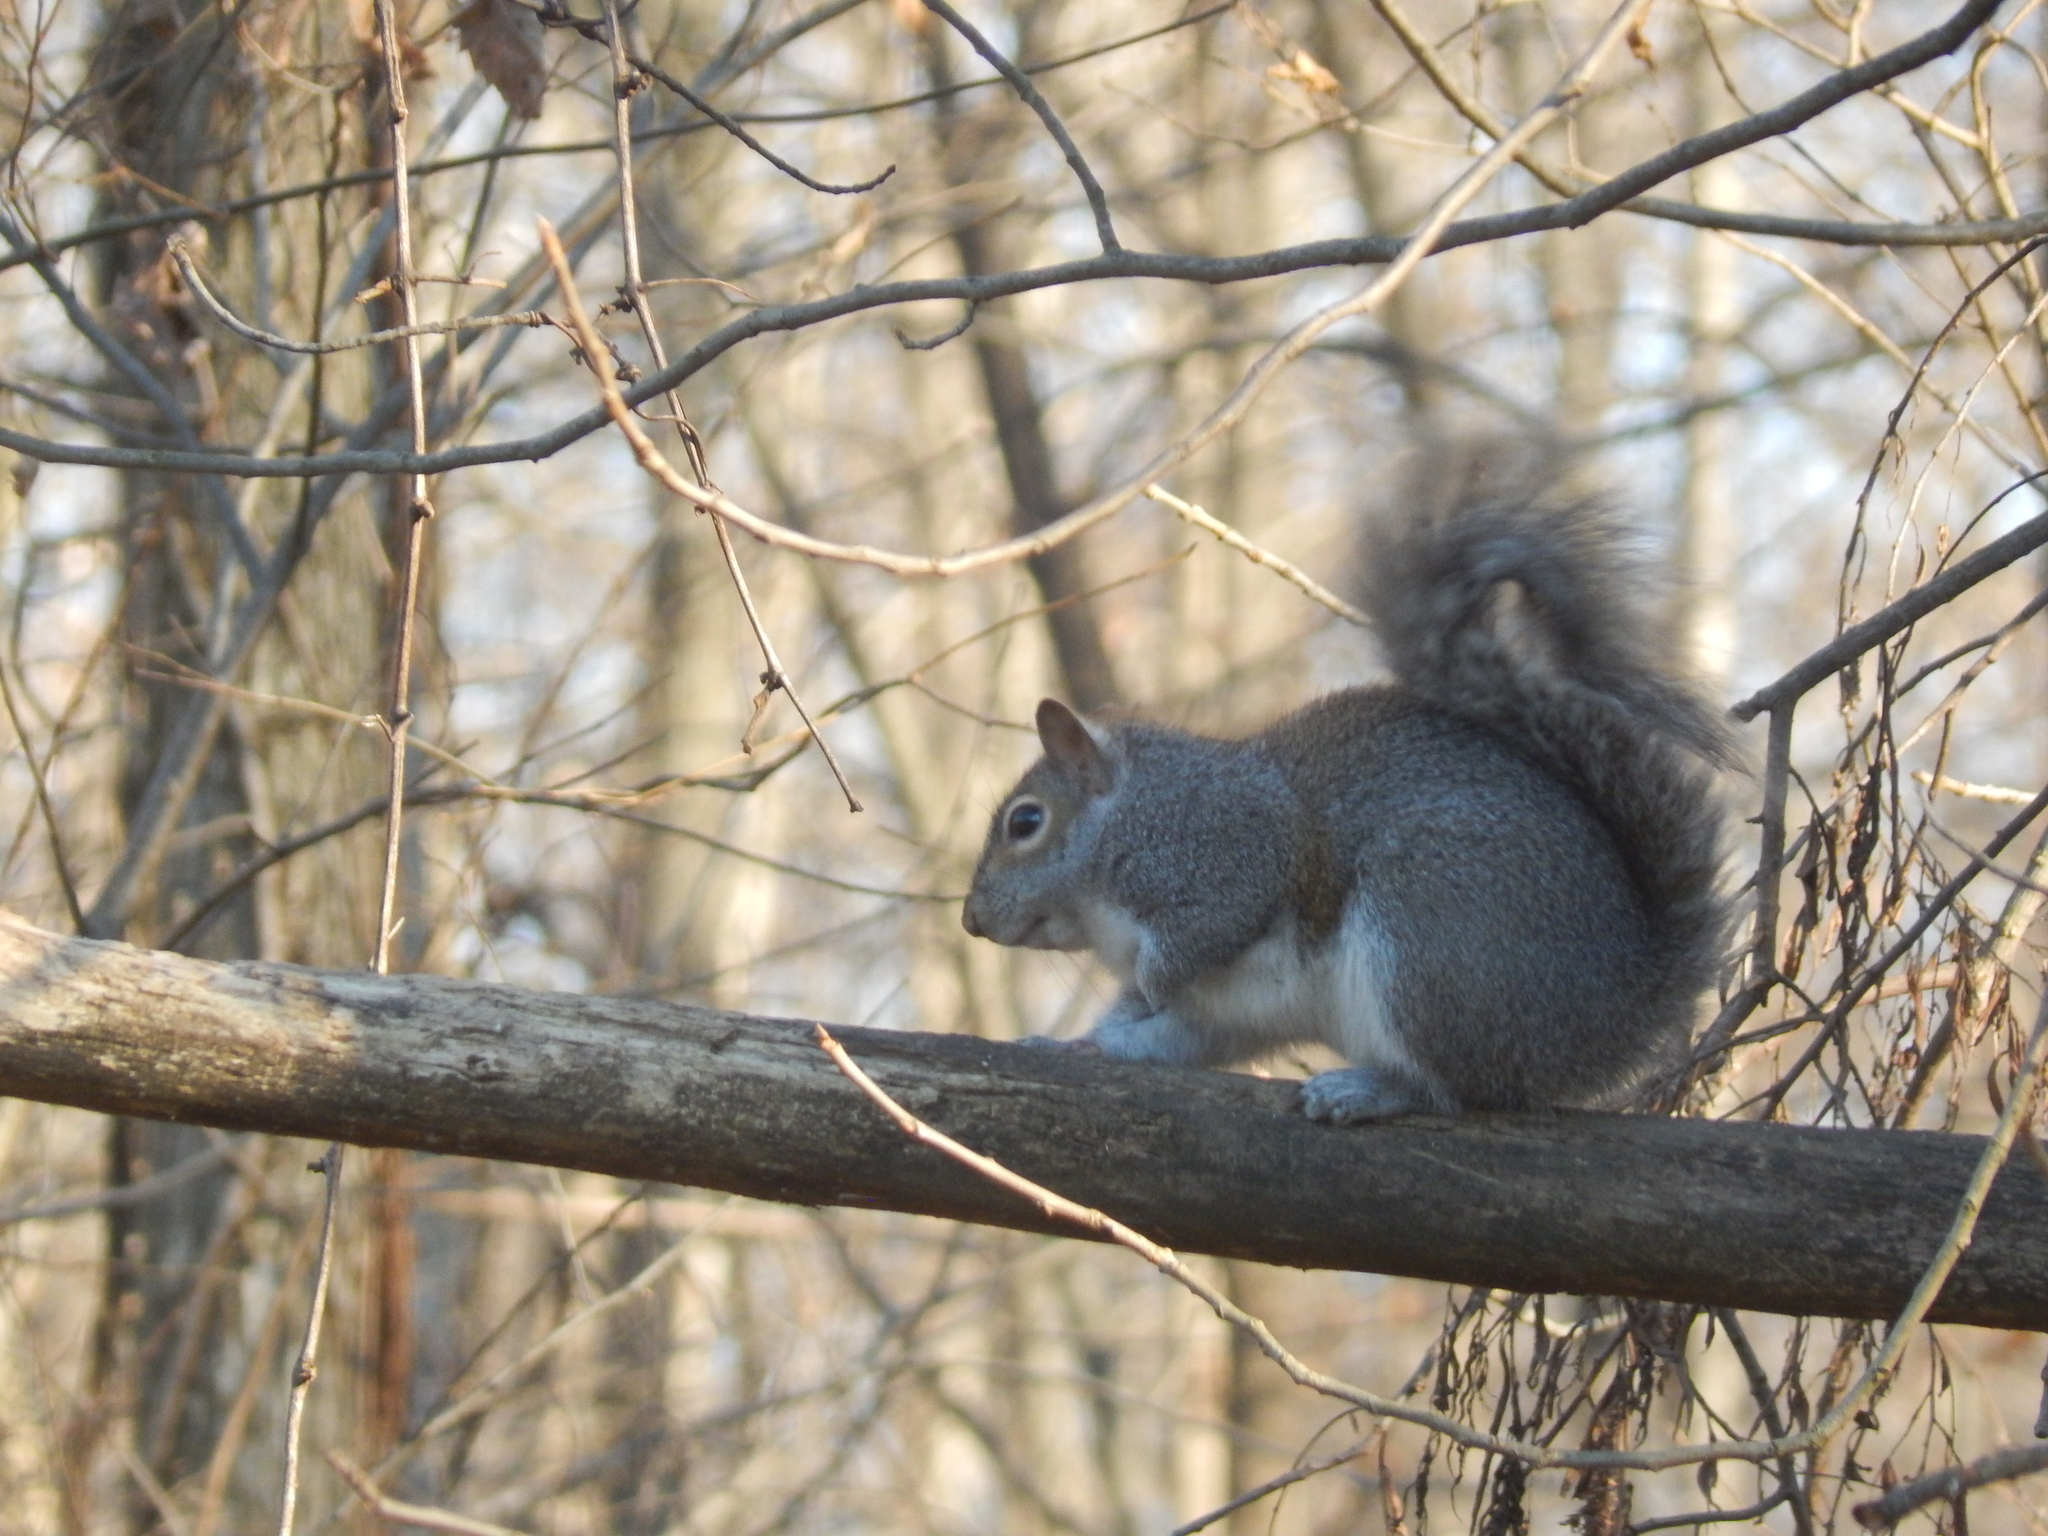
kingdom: Animalia
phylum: Chordata
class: Mammalia
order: Rodentia
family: Sciuridae
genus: Sciurus
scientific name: Sciurus carolinensis
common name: Eastern gray squirrel
